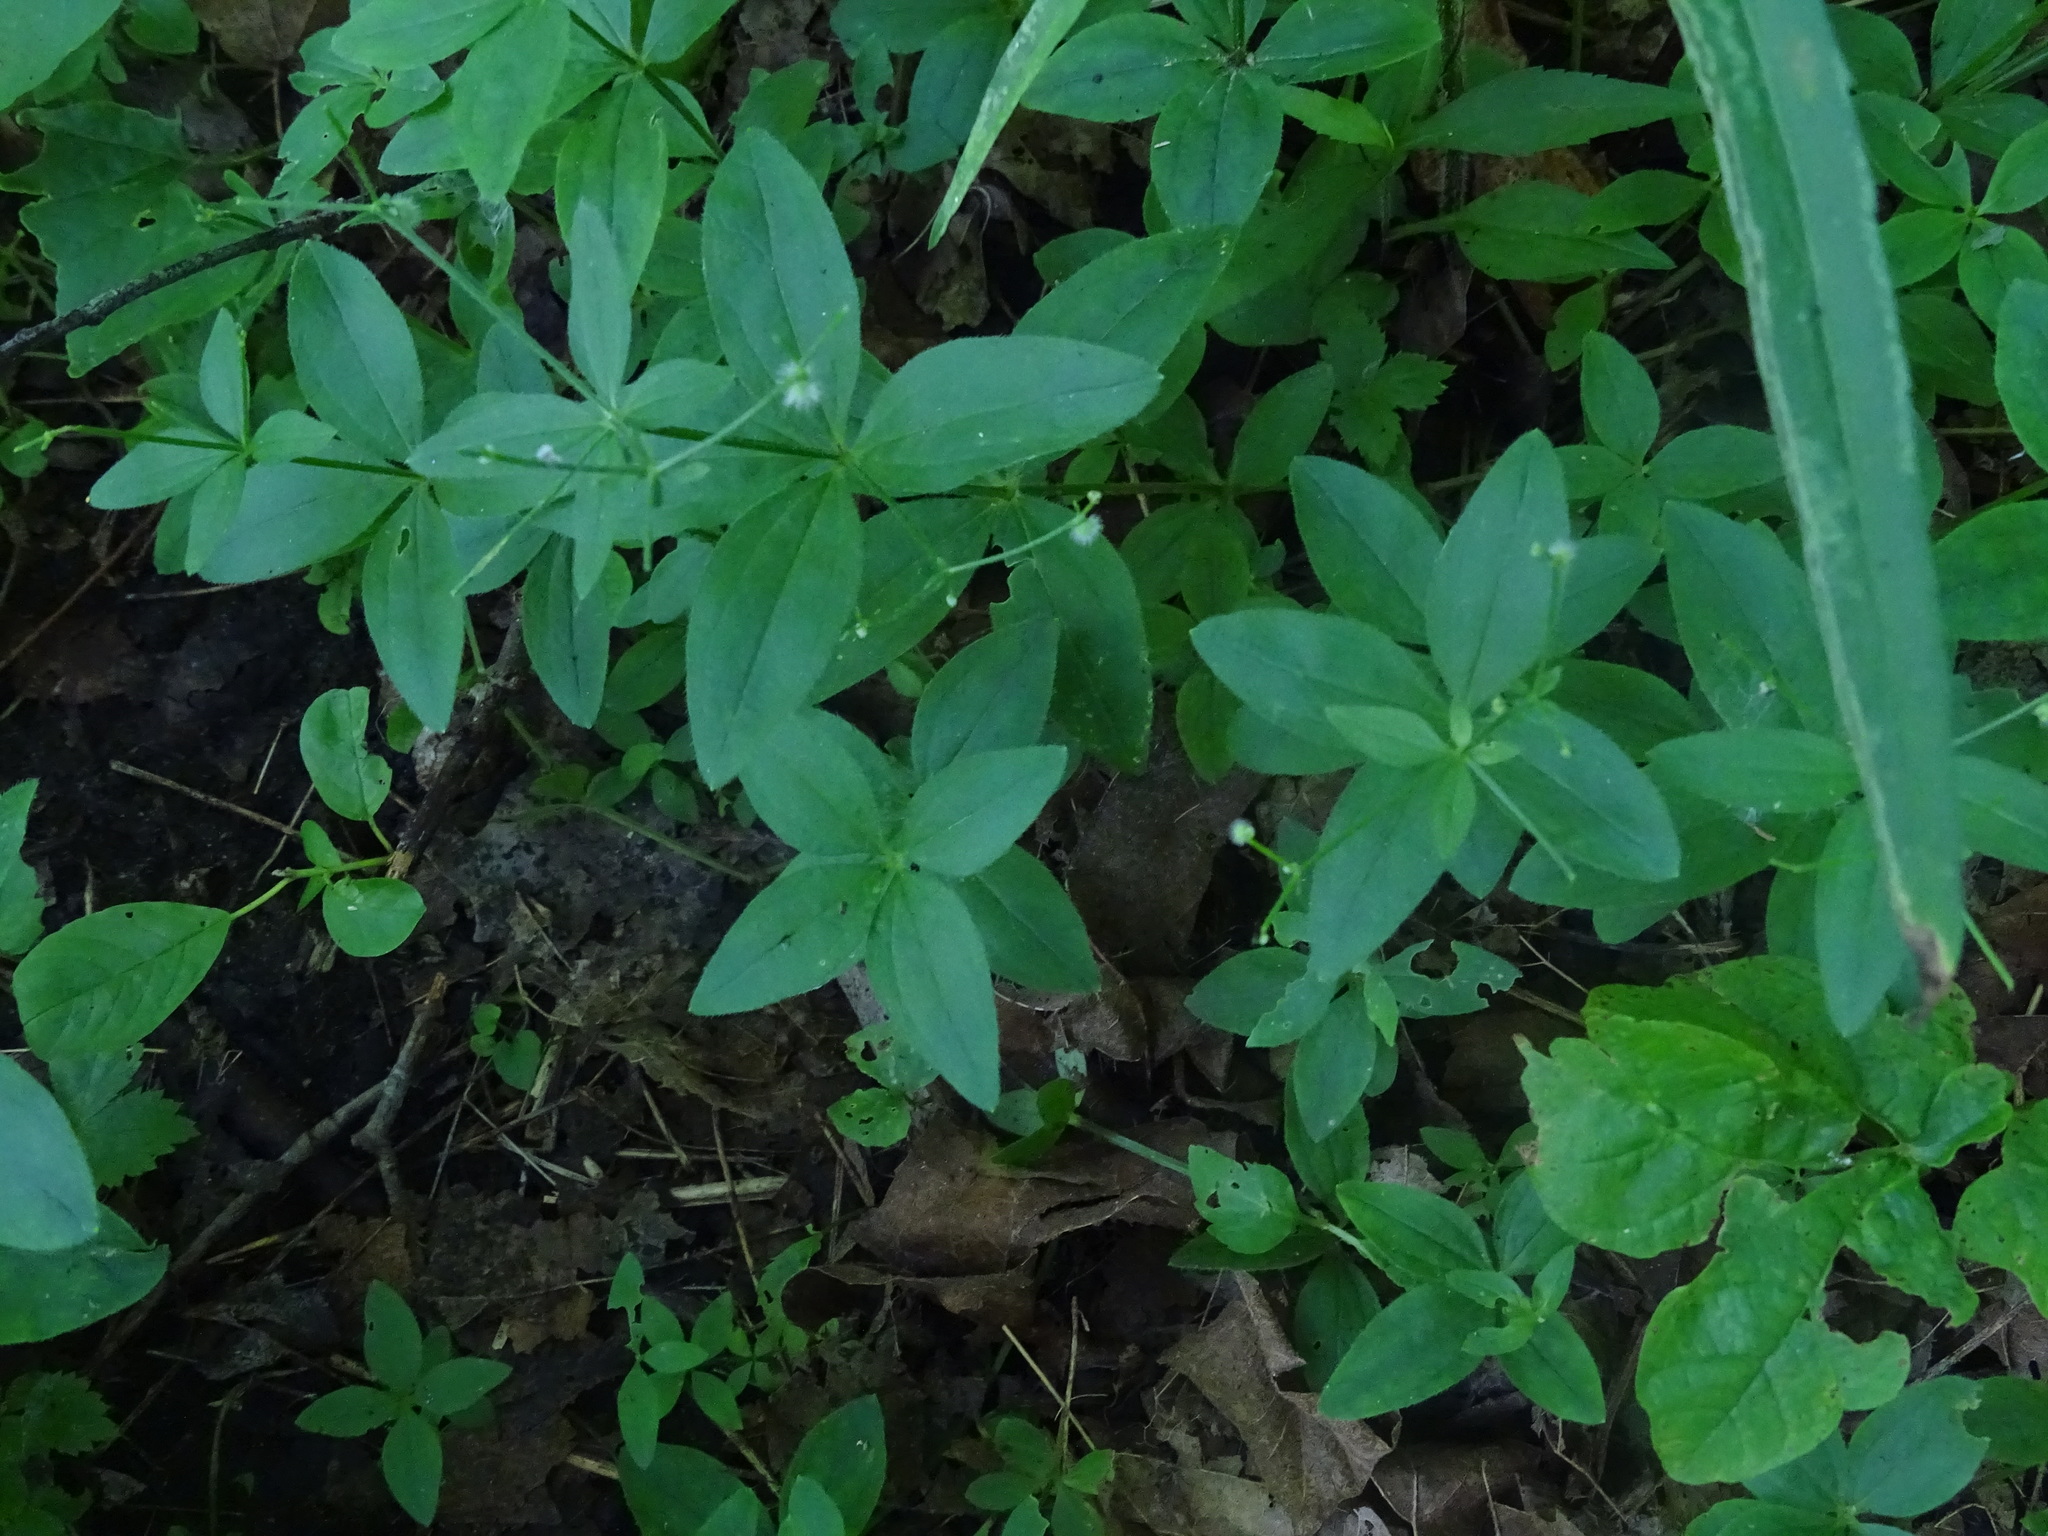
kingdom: Plantae
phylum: Tracheophyta
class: Magnoliopsida
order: Gentianales
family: Rubiaceae
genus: Galium
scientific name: Galium circaezans
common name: Forest bedstraw
